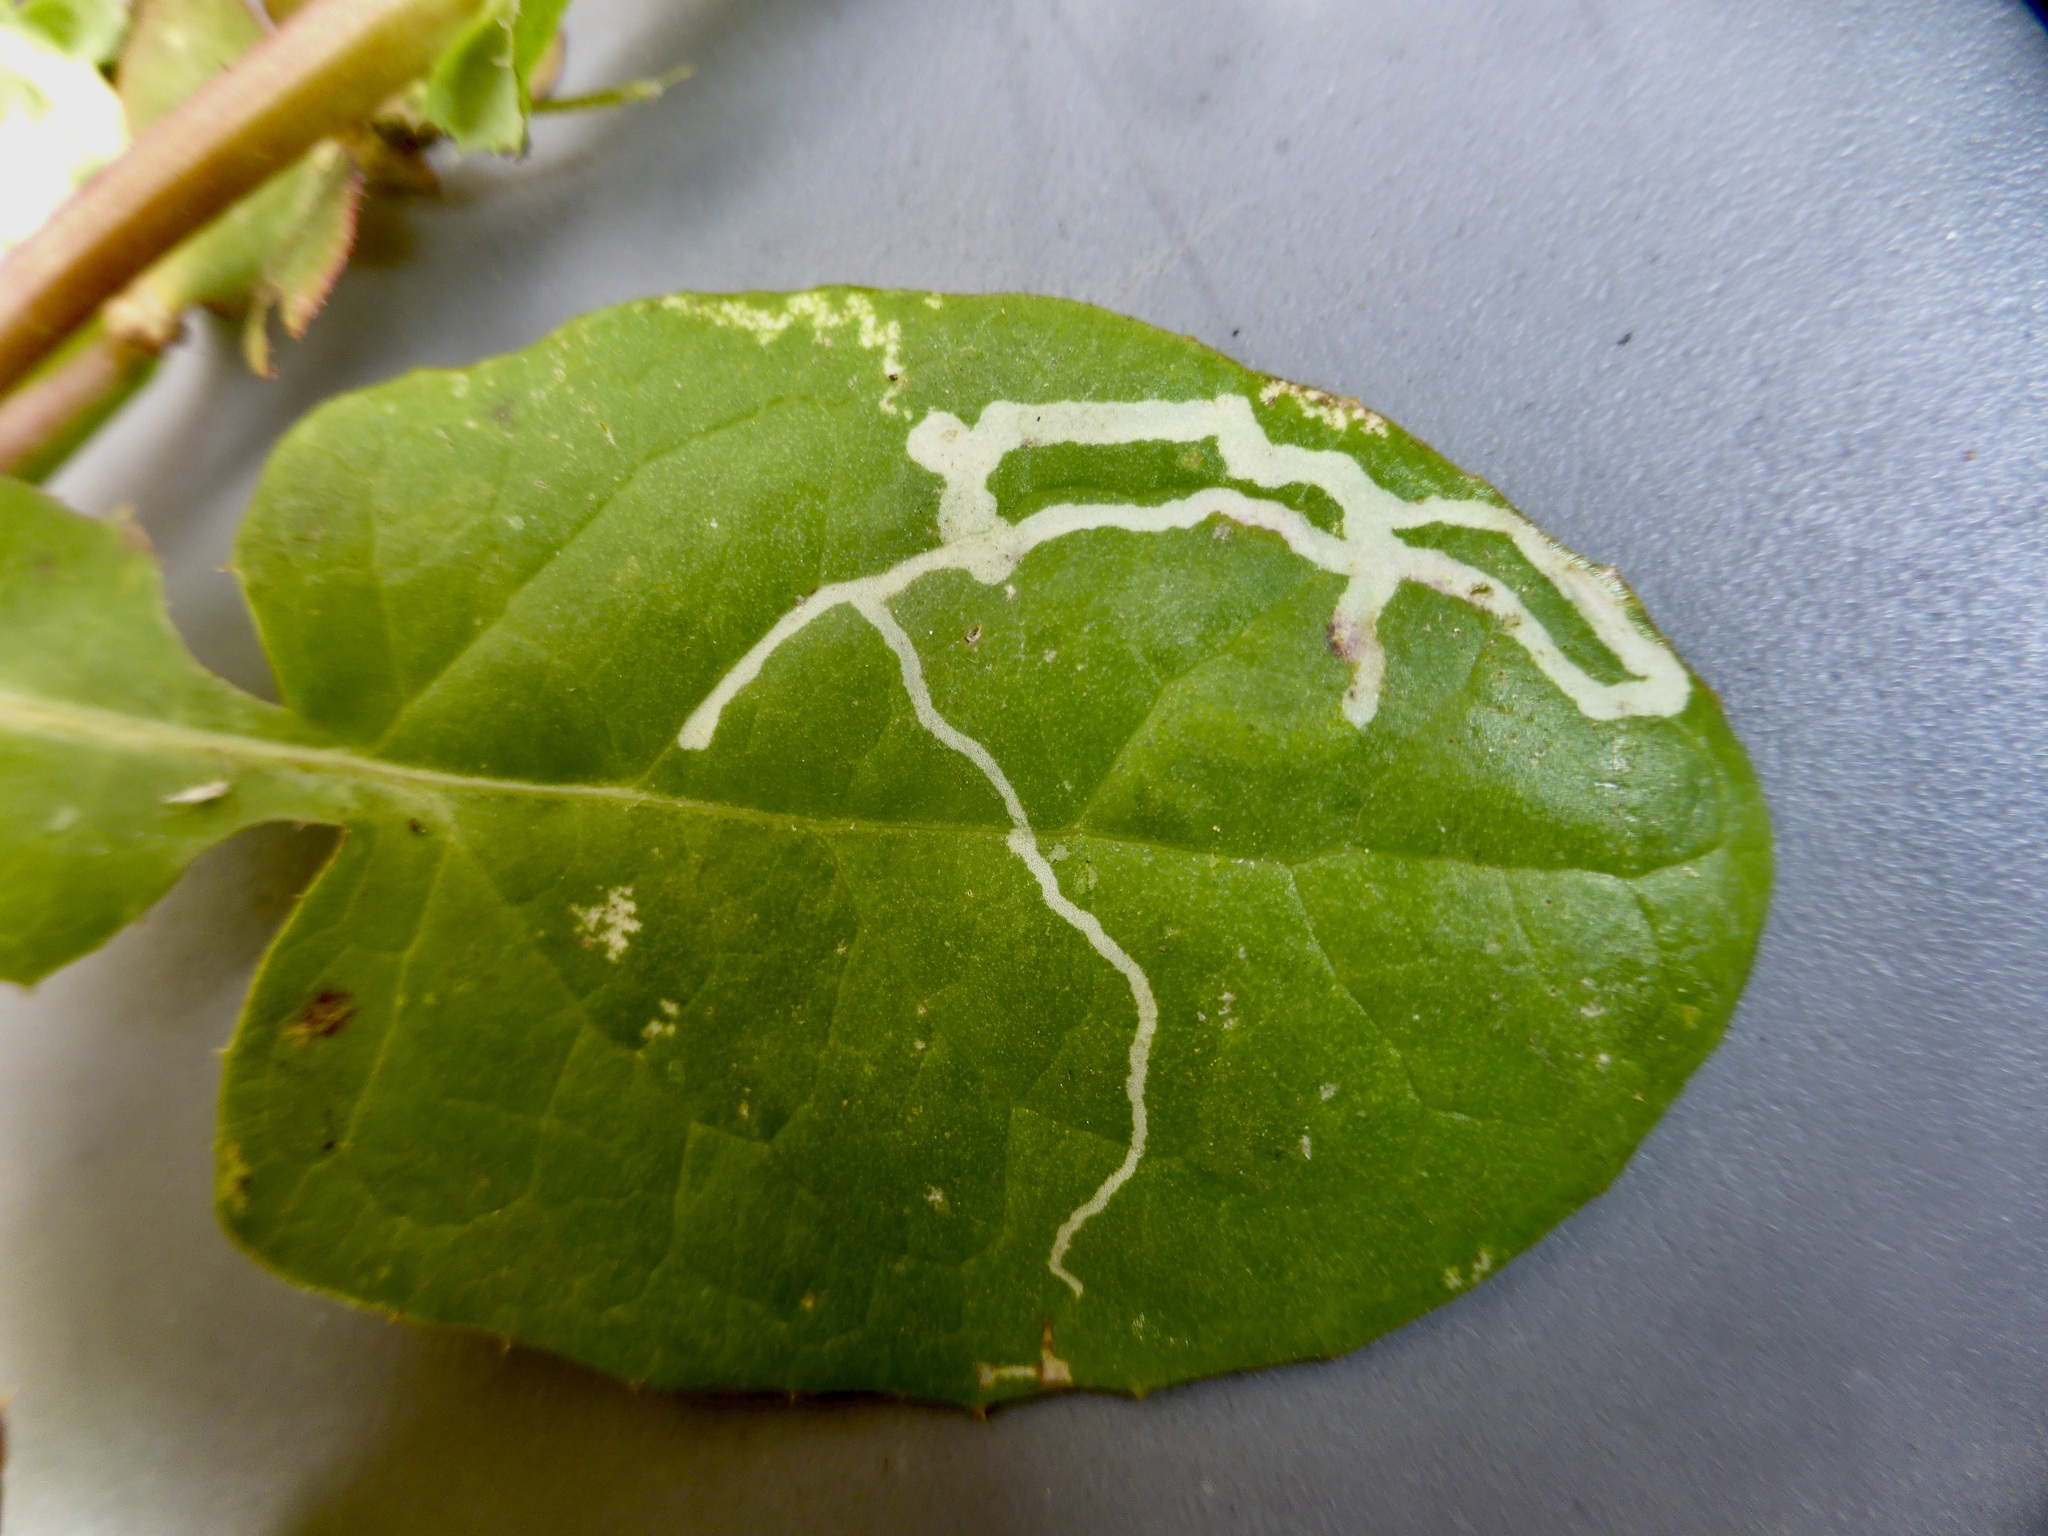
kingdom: Animalia
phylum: Arthropoda
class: Insecta
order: Diptera
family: Agromyzidae
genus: Phytomyza
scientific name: Phytomyza syngenesiae
